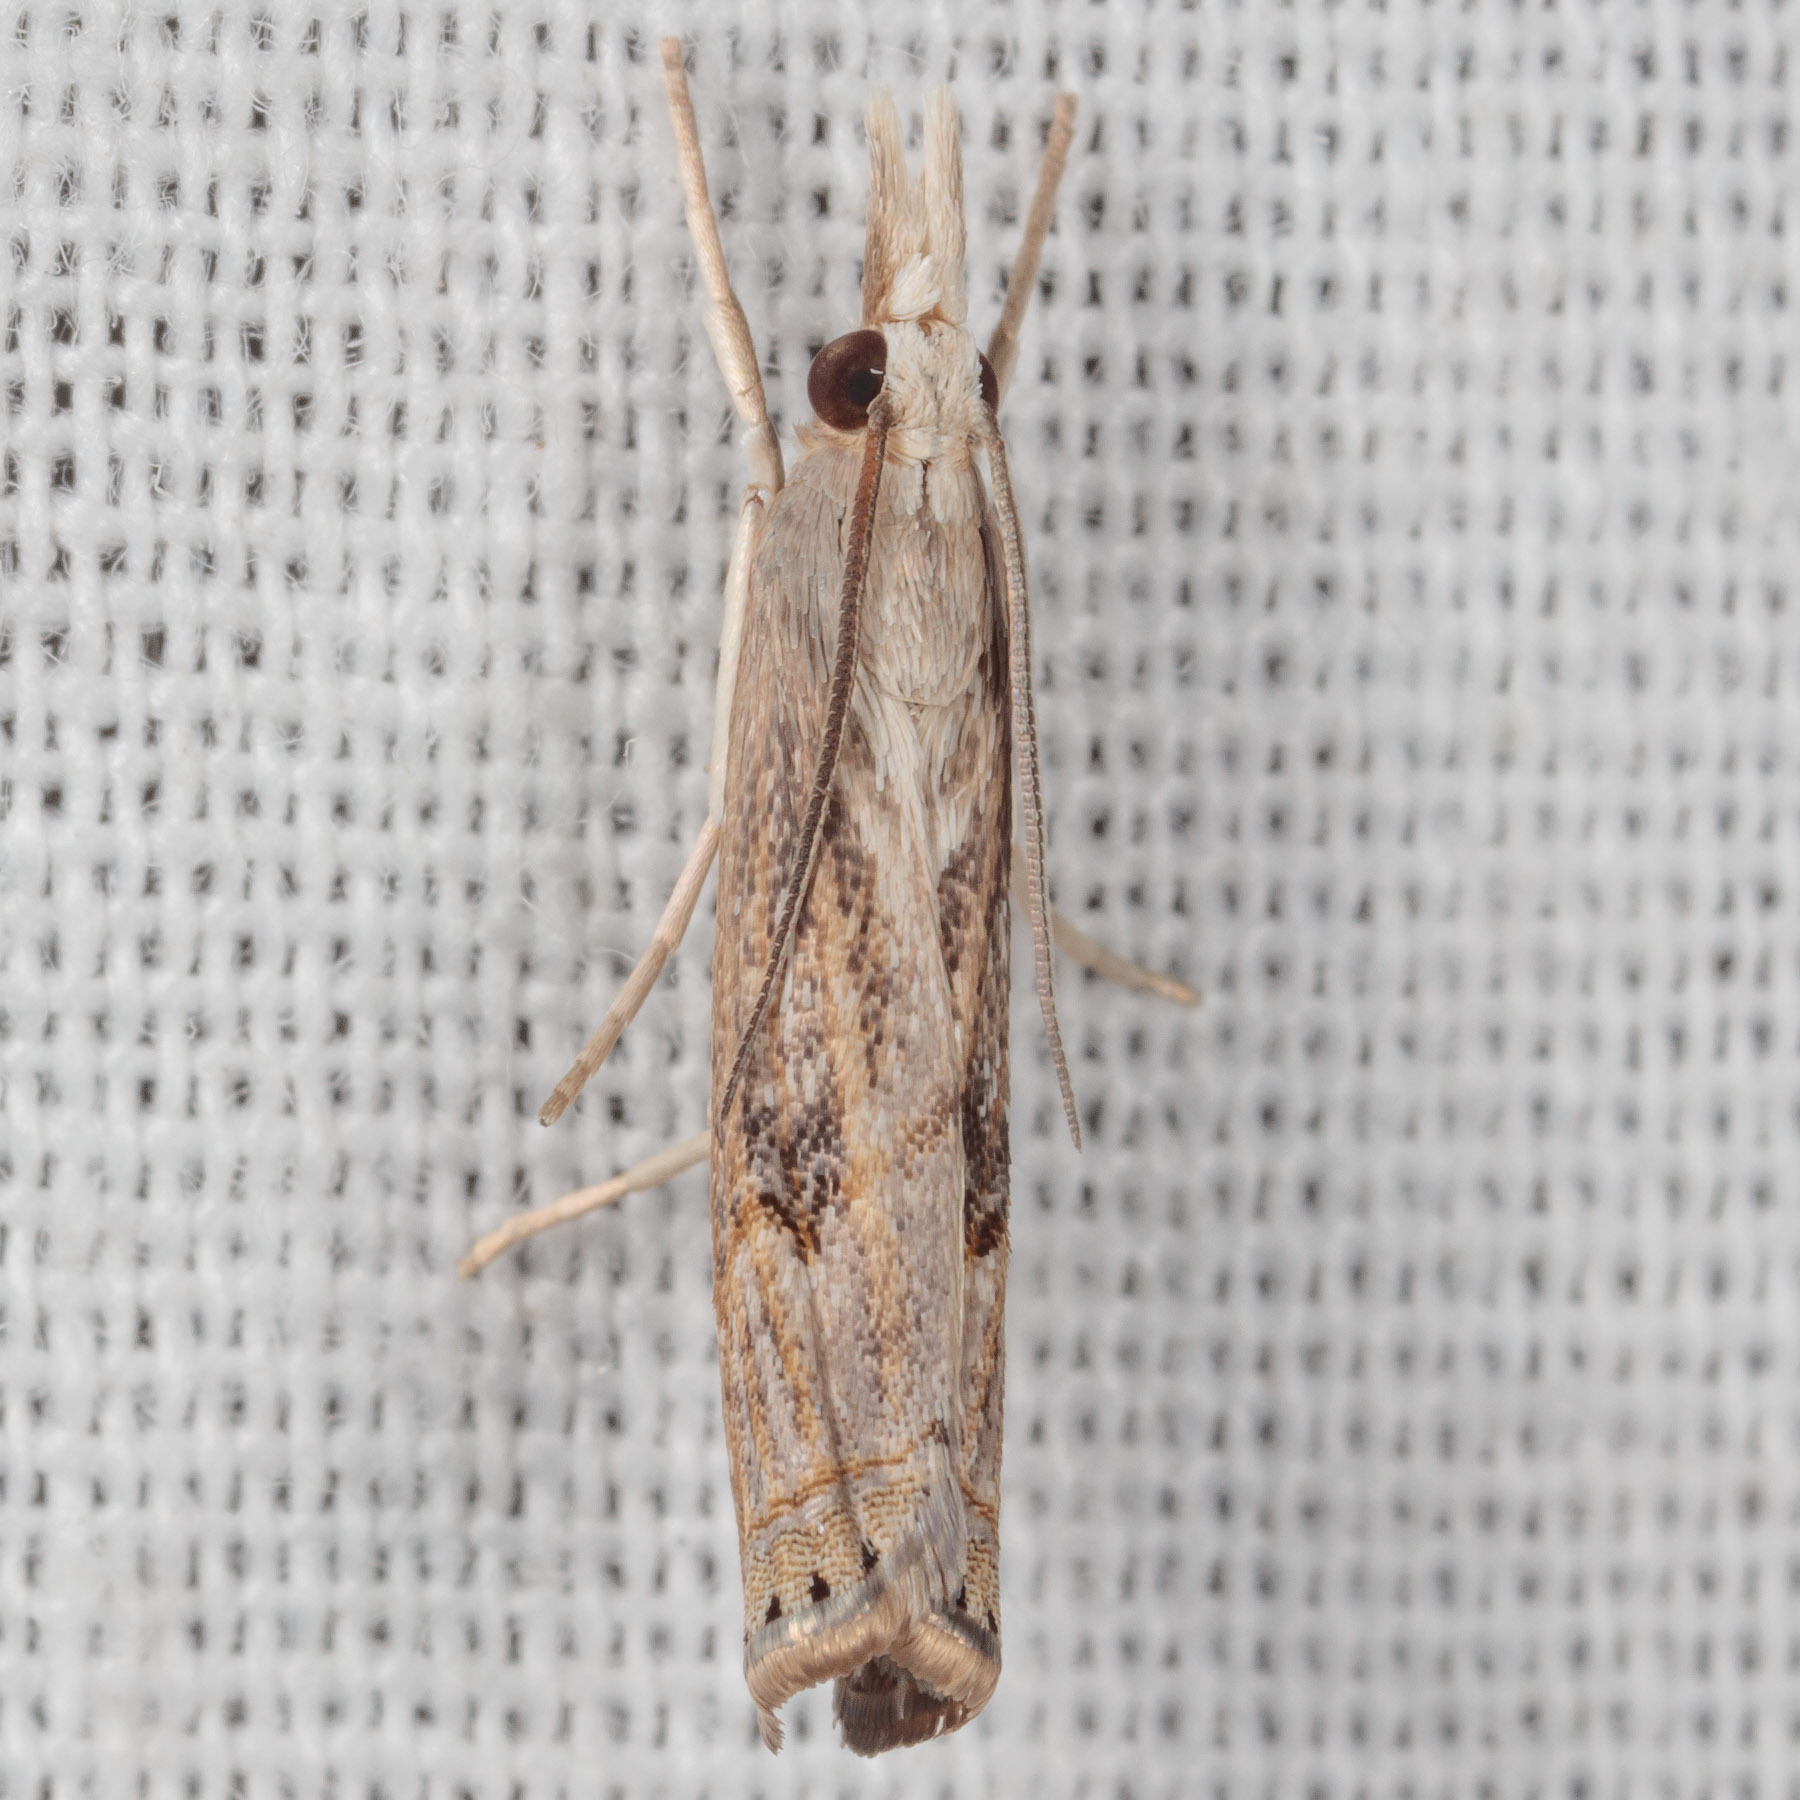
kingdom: Animalia
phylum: Arthropoda
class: Insecta
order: Lepidoptera
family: Crambidae
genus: Parapediasia
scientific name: Parapediasia teterellus
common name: Bluegrass webworm moth
